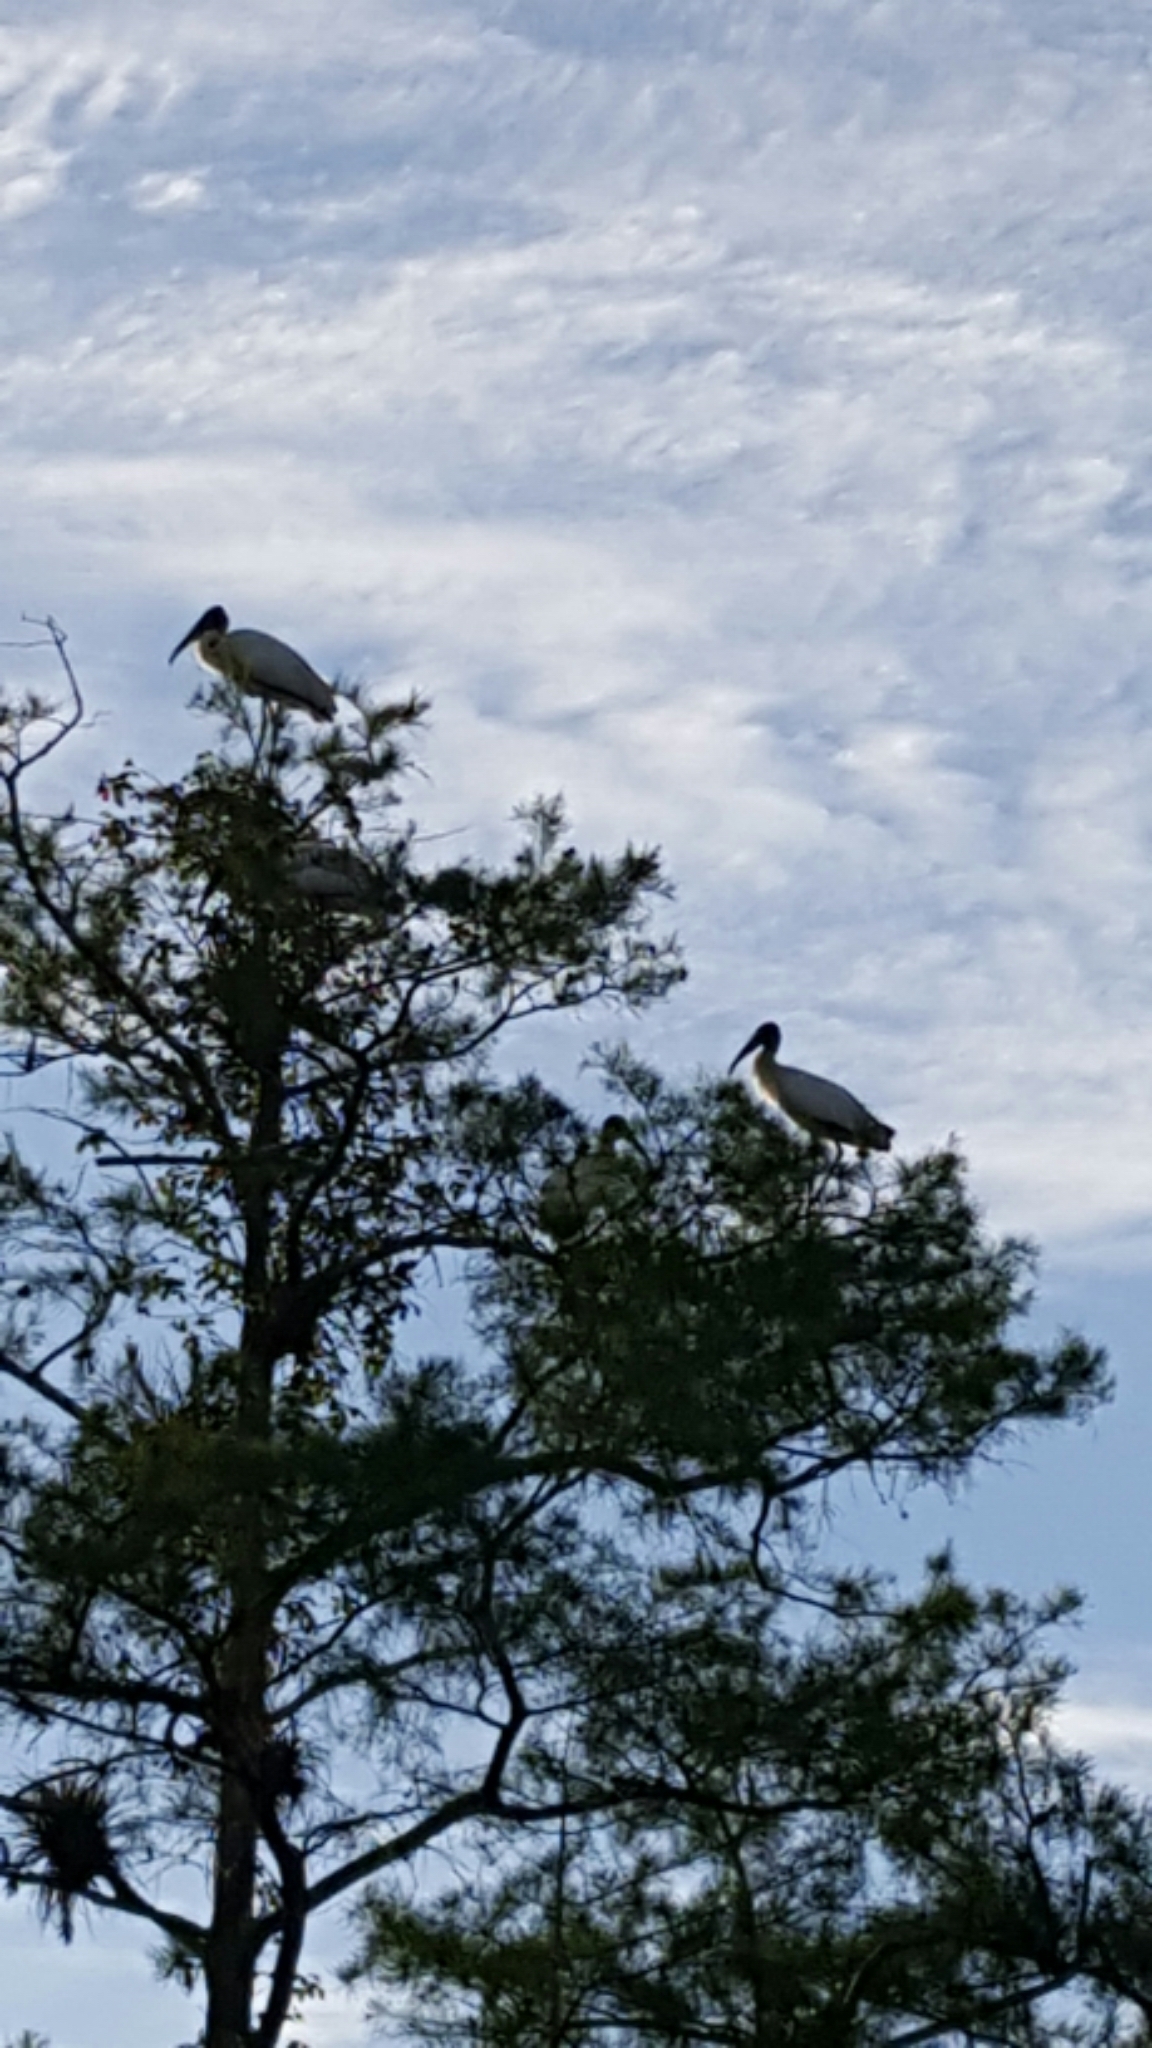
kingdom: Animalia
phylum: Chordata
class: Aves
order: Ciconiiformes
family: Ciconiidae
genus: Mycteria
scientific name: Mycteria americana
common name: Wood stork
